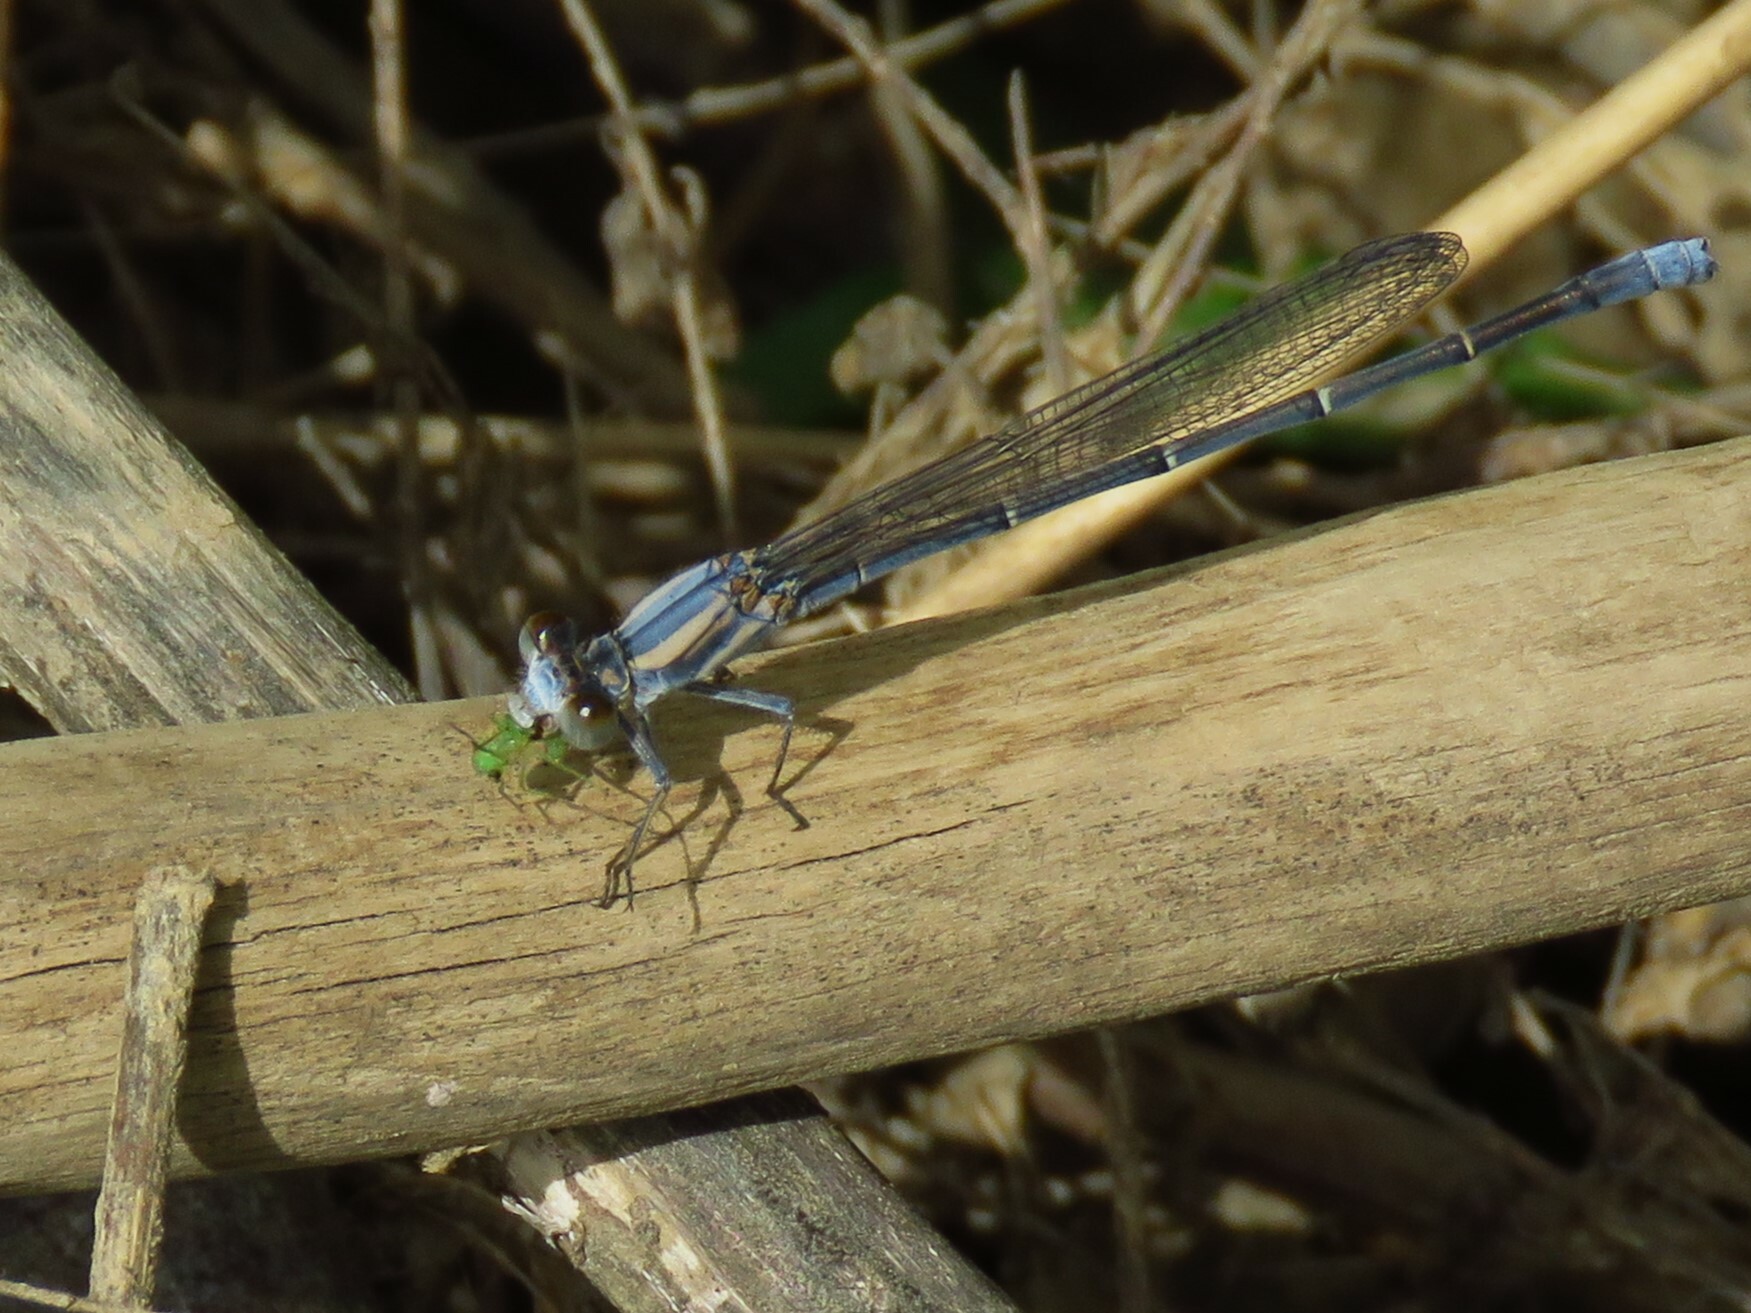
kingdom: Animalia
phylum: Arthropoda
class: Insecta
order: Odonata
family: Coenagrionidae
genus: Argia
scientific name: Argia moesta
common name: Powdered dancer
